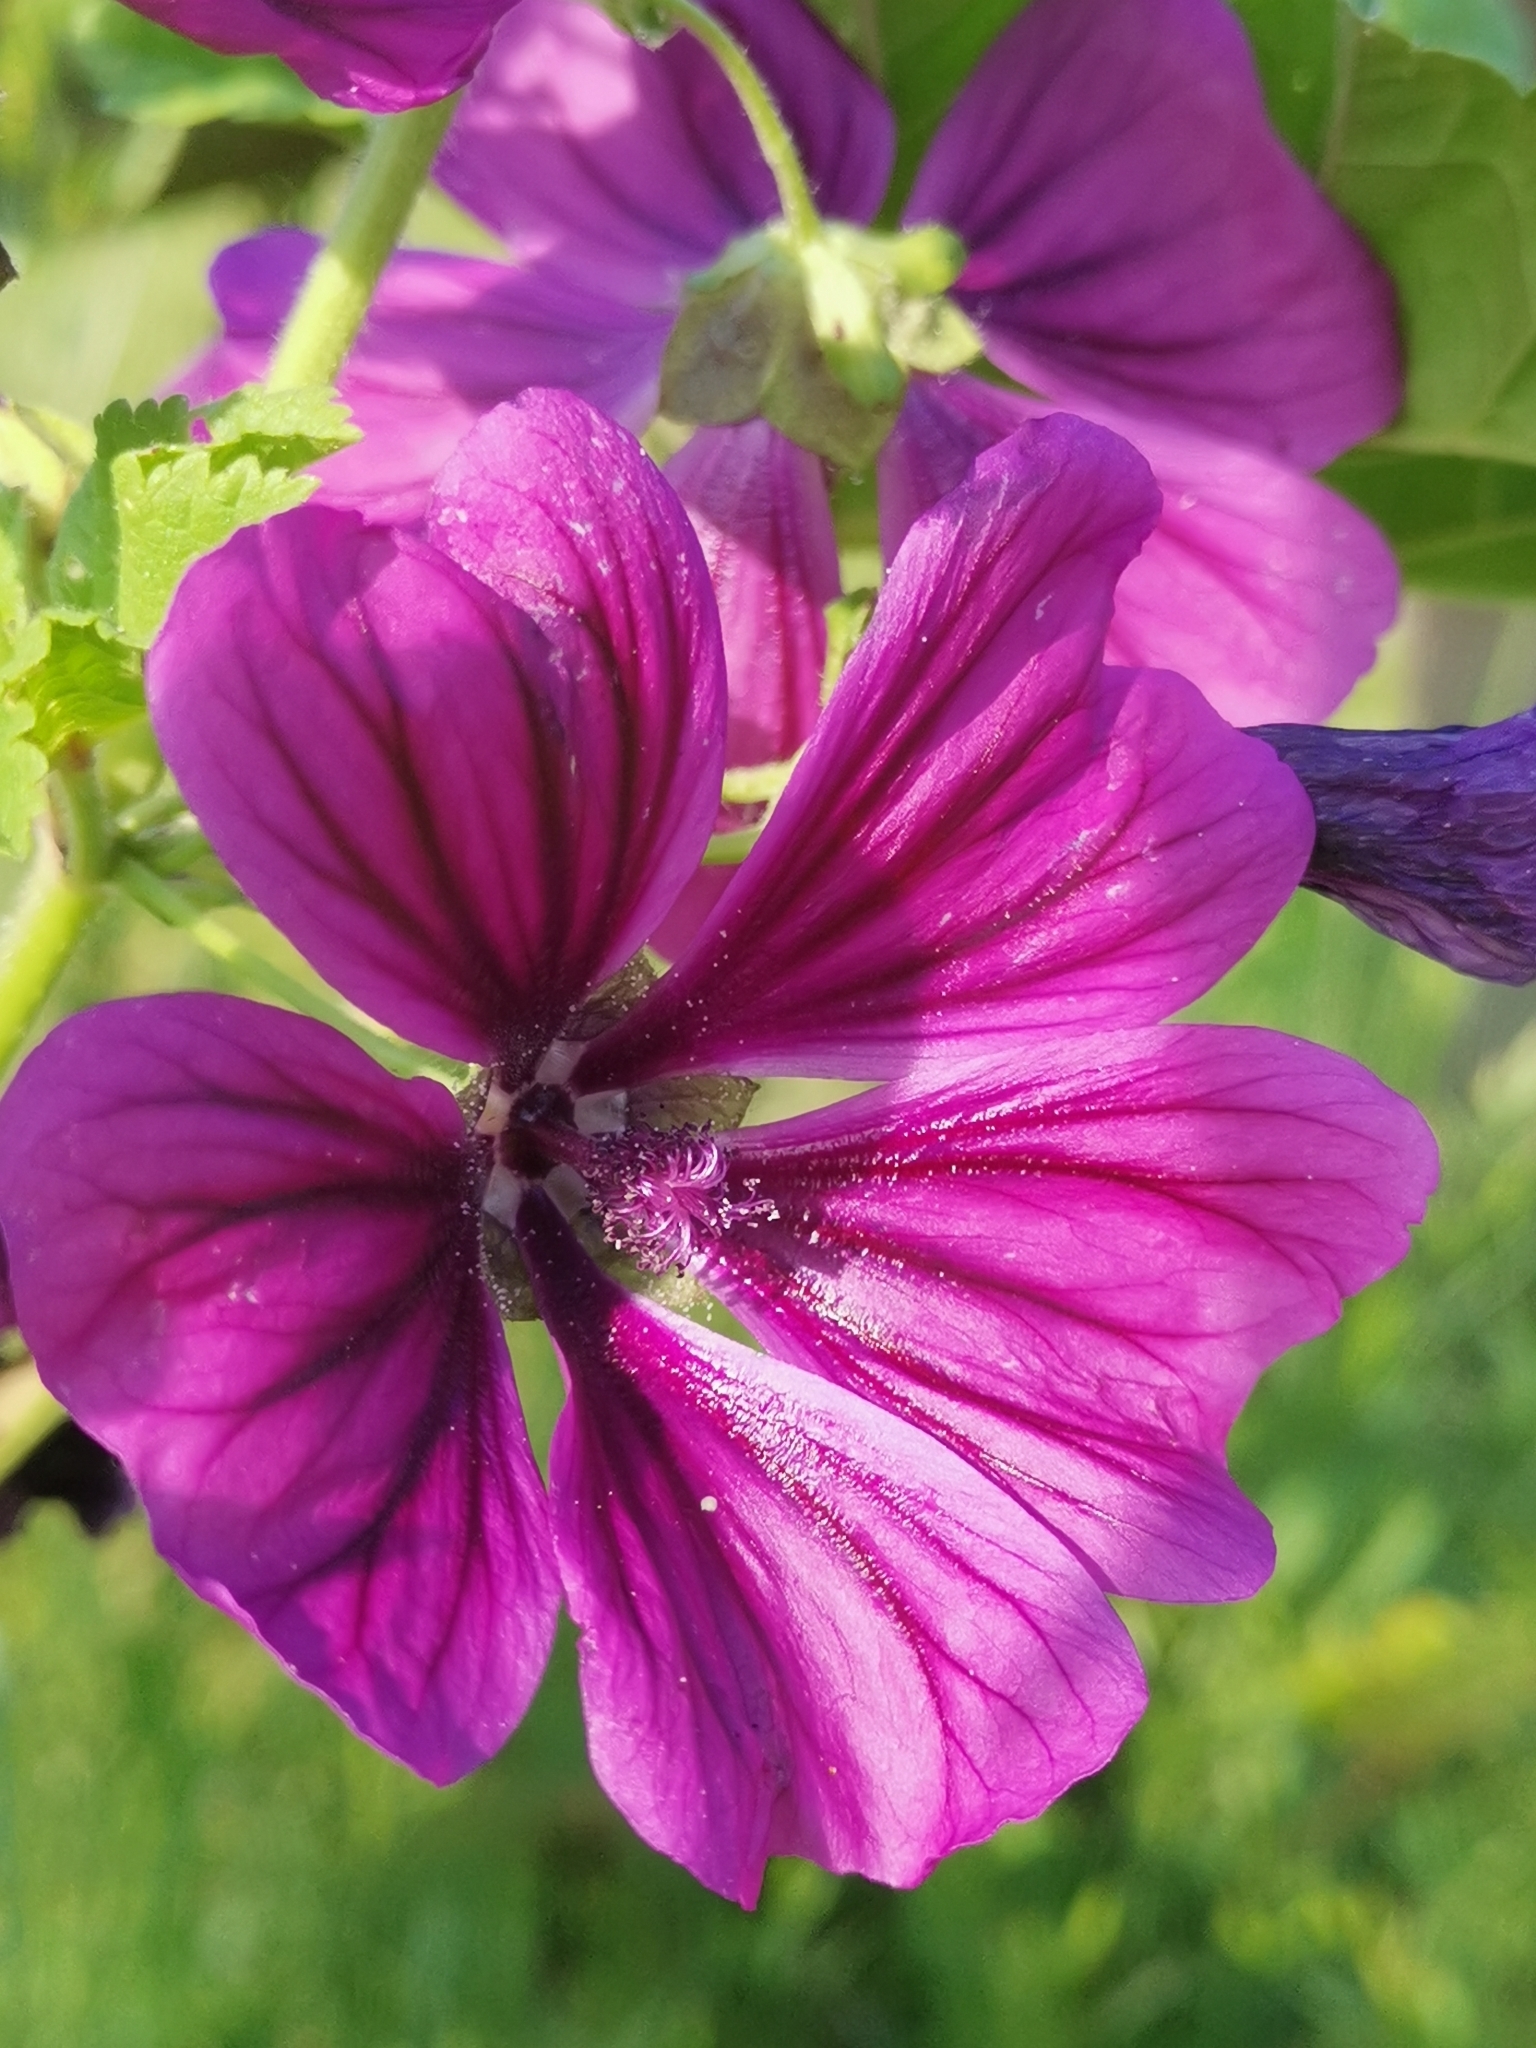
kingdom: Plantae
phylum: Tracheophyta
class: Magnoliopsida
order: Malvales
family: Malvaceae
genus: Malva
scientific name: Malva sylvestris
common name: Common mallow
